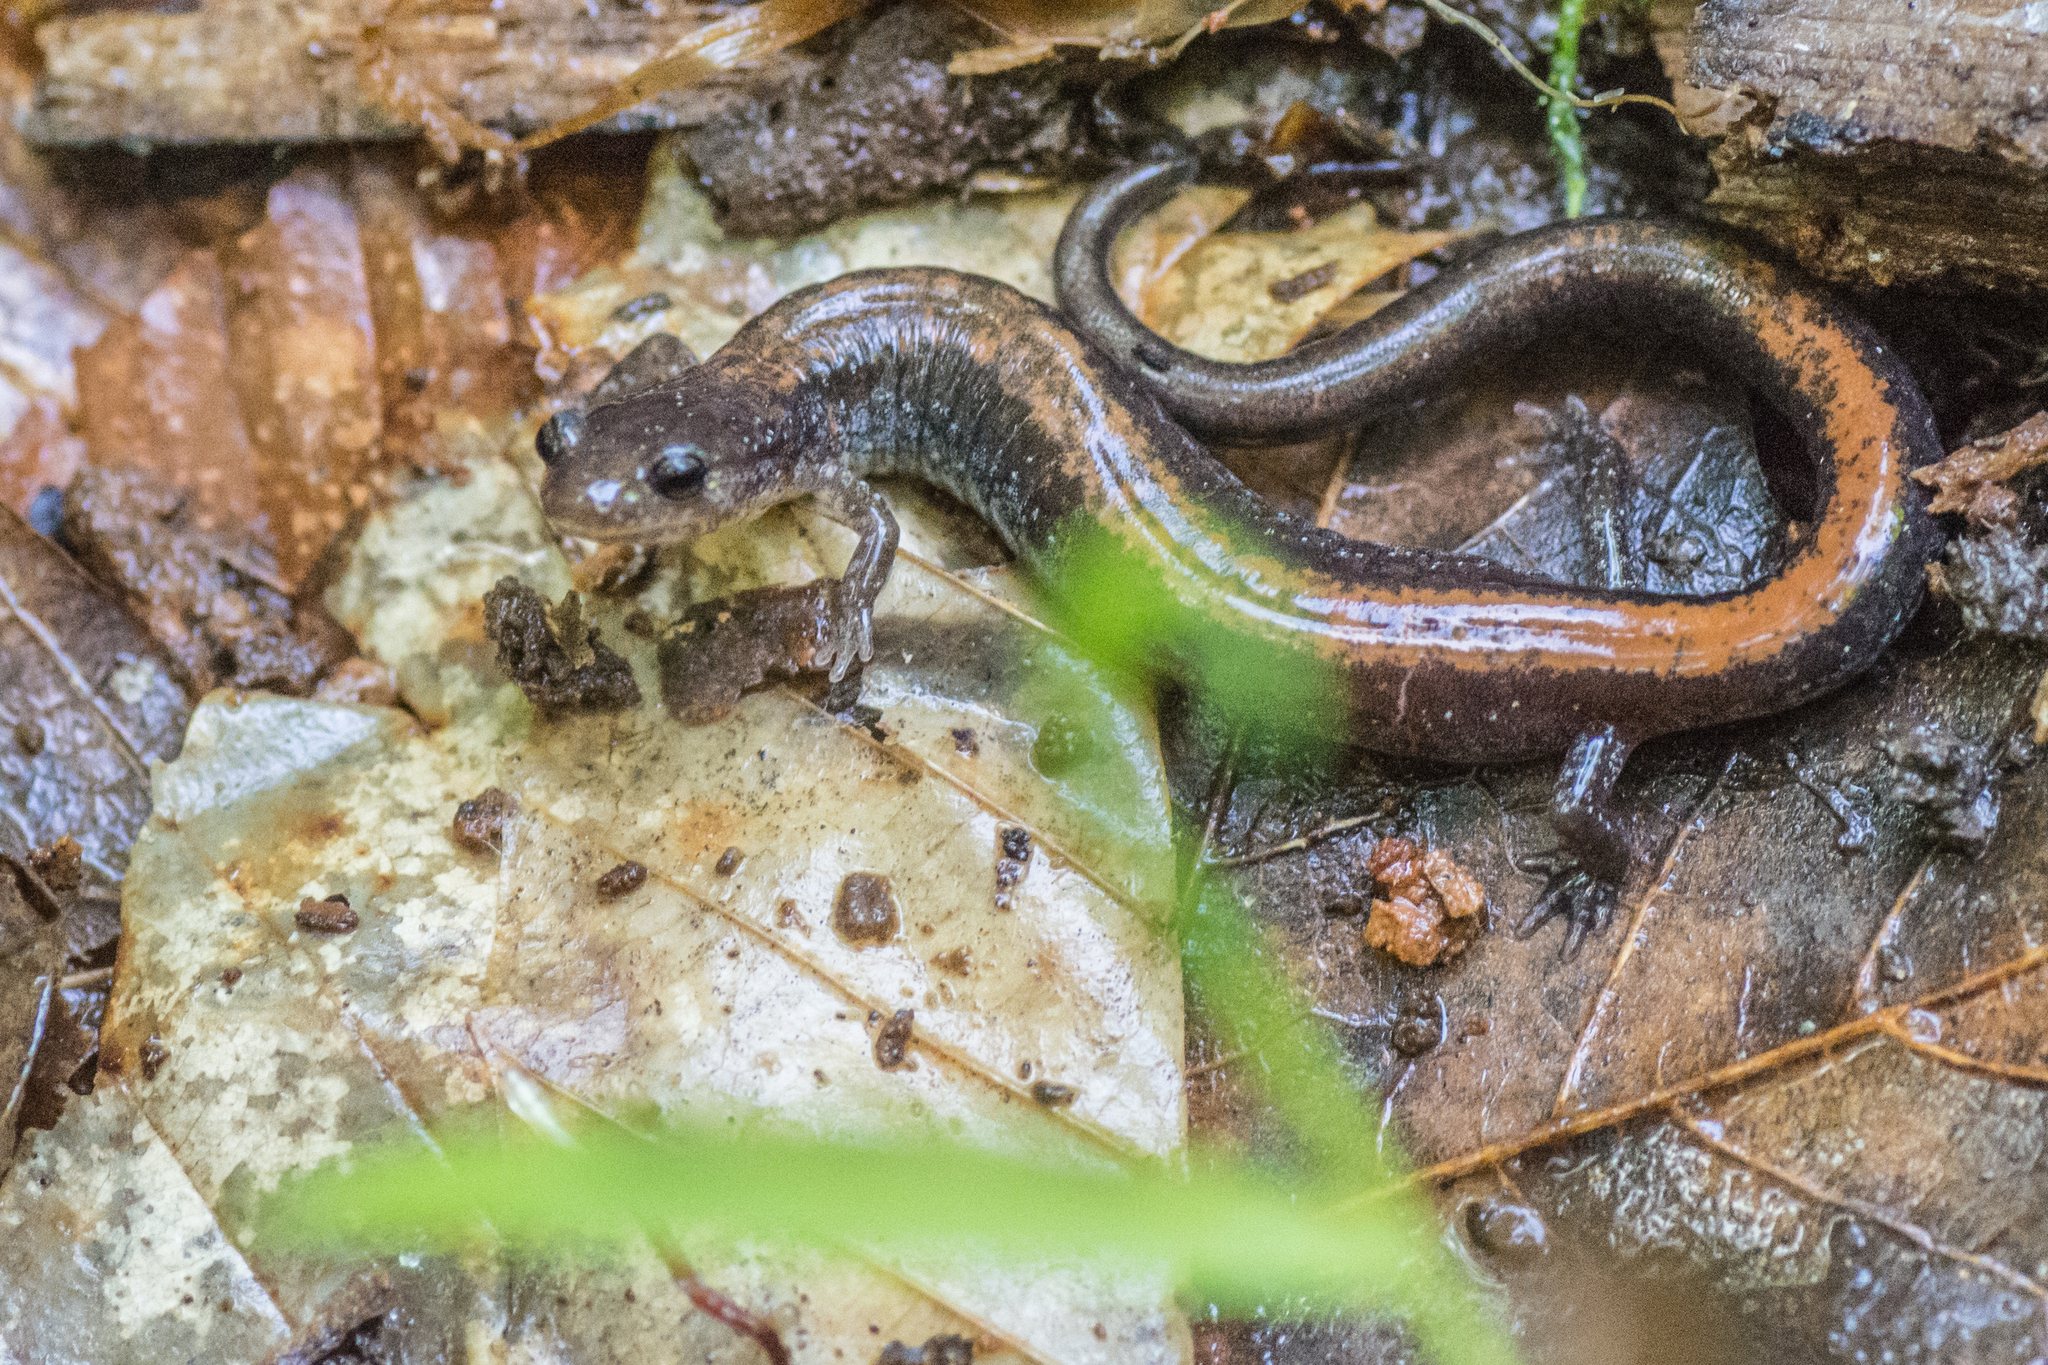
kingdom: Animalia
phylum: Chordata
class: Amphibia
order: Caudata
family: Plethodontidae
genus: Plethodon
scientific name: Plethodon cinereus
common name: Redback salamander
